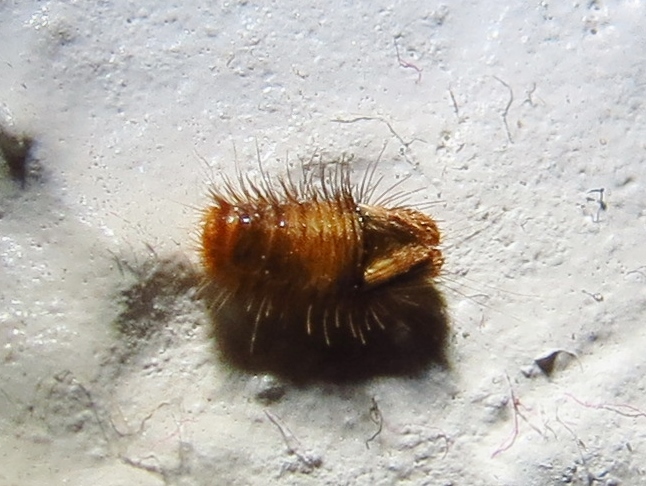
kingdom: Animalia
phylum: Arthropoda
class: Insecta
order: Coleoptera
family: Dermestidae
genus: Anthrenus
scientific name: Anthrenus verbasci
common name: Varied carpet beetle
